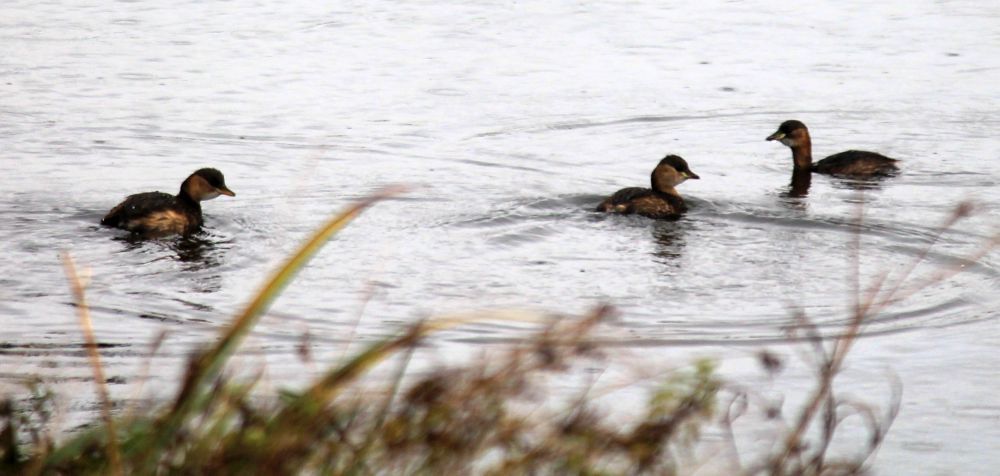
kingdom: Animalia
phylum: Chordata
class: Aves
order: Podicipediformes
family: Podicipedidae
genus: Tachybaptus
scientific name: Tachybaptus ruficollis
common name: Little grebe
